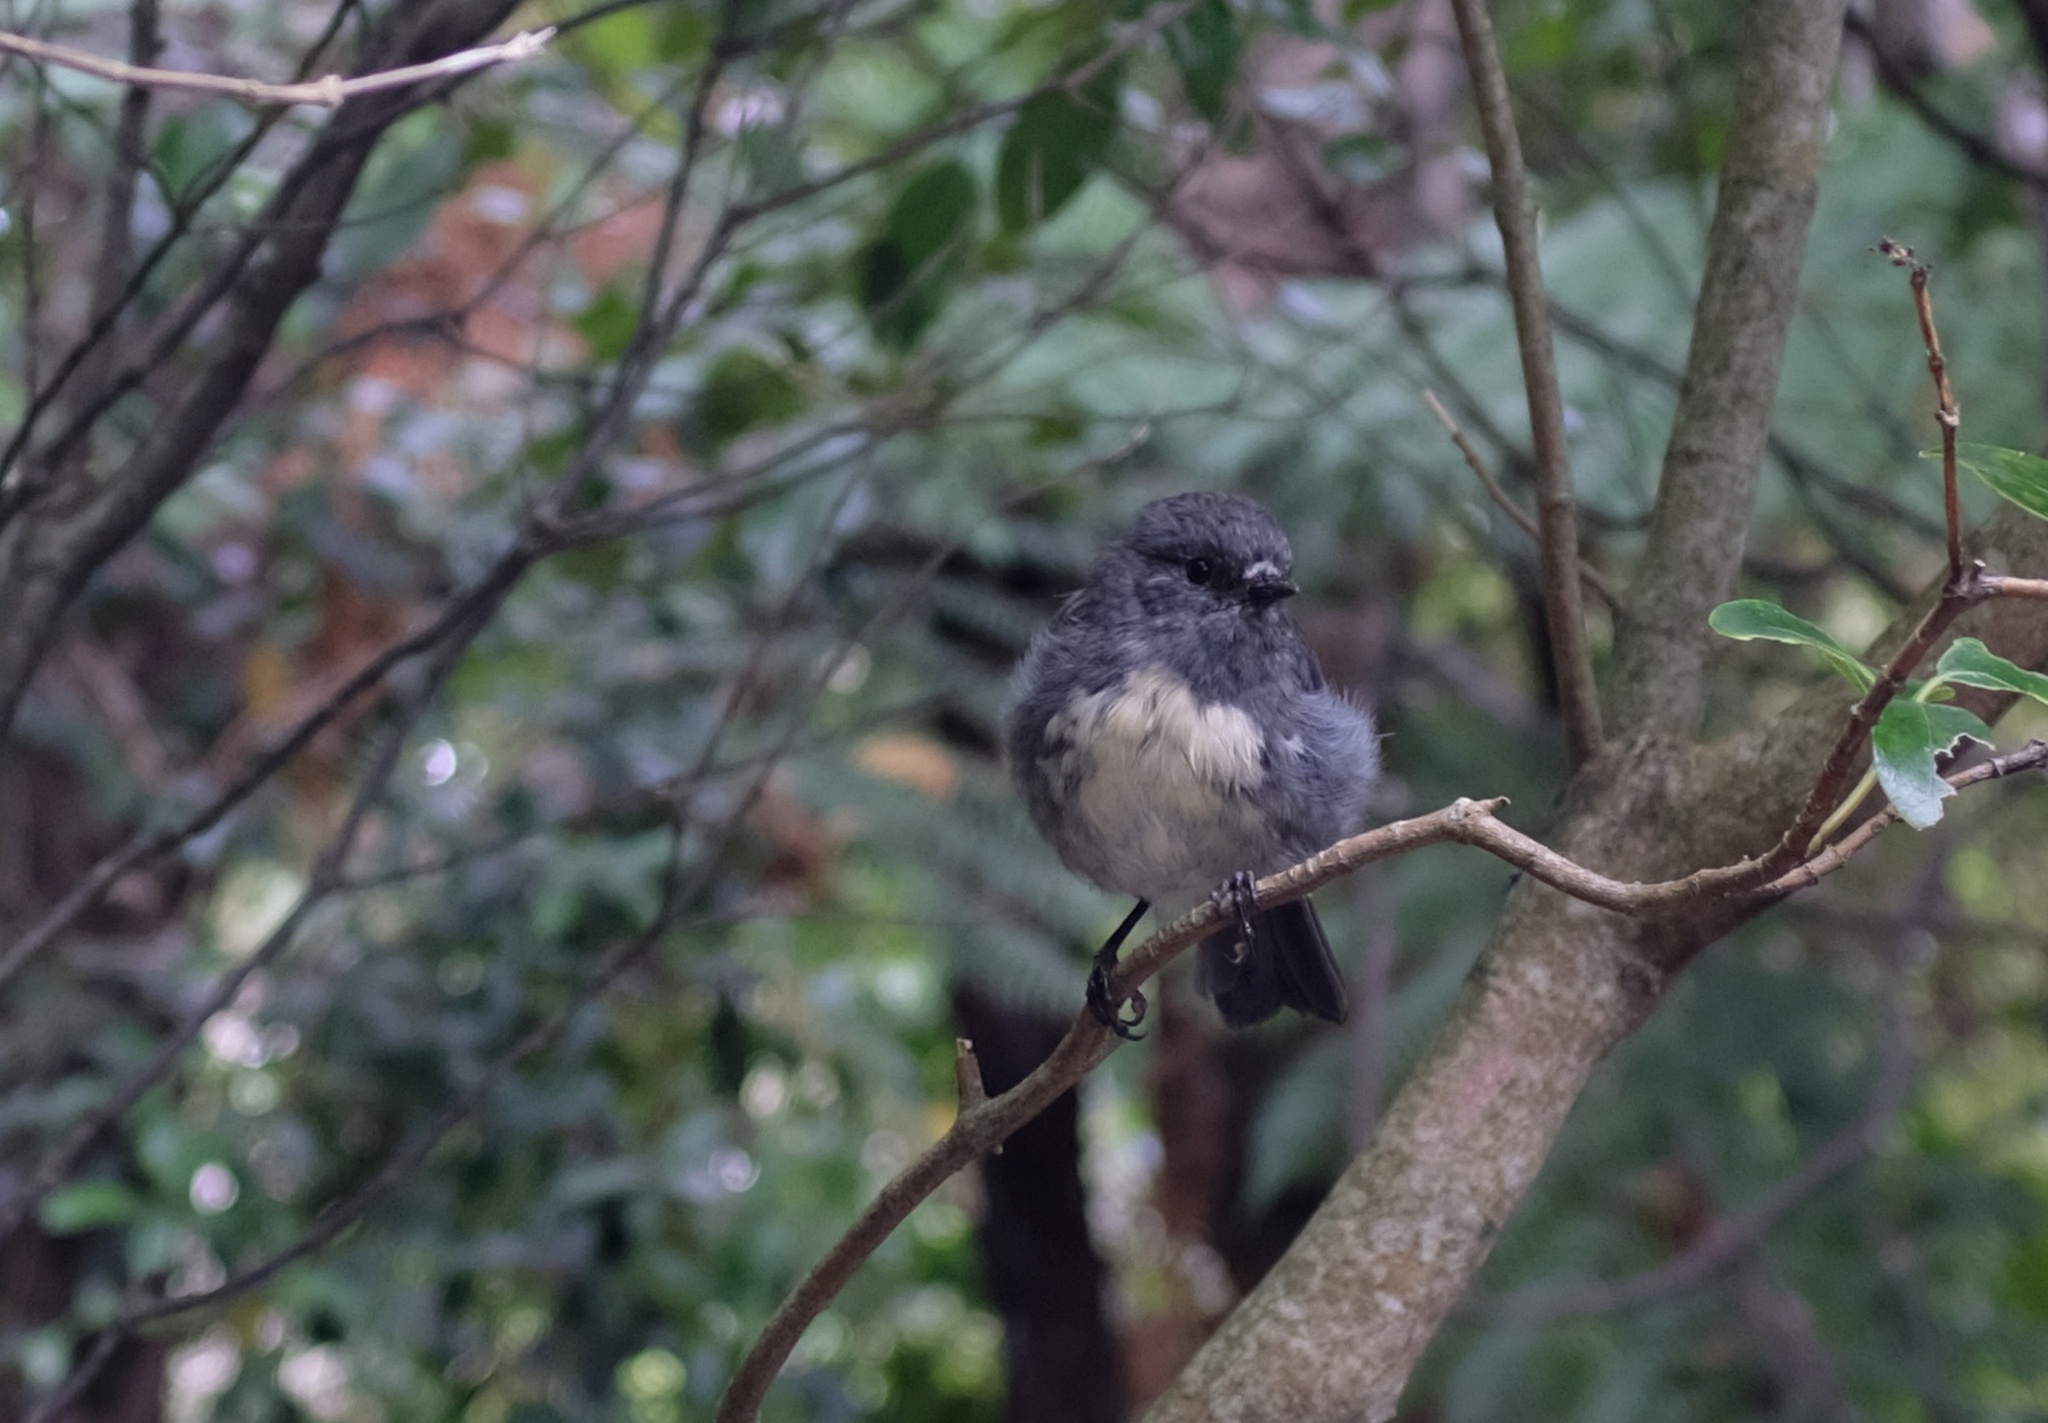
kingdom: Animalia
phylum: Chordata
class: Aves
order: Passeriformes
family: Petroicidae
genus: Petroica
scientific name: Petroica australis
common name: New zealand robin
